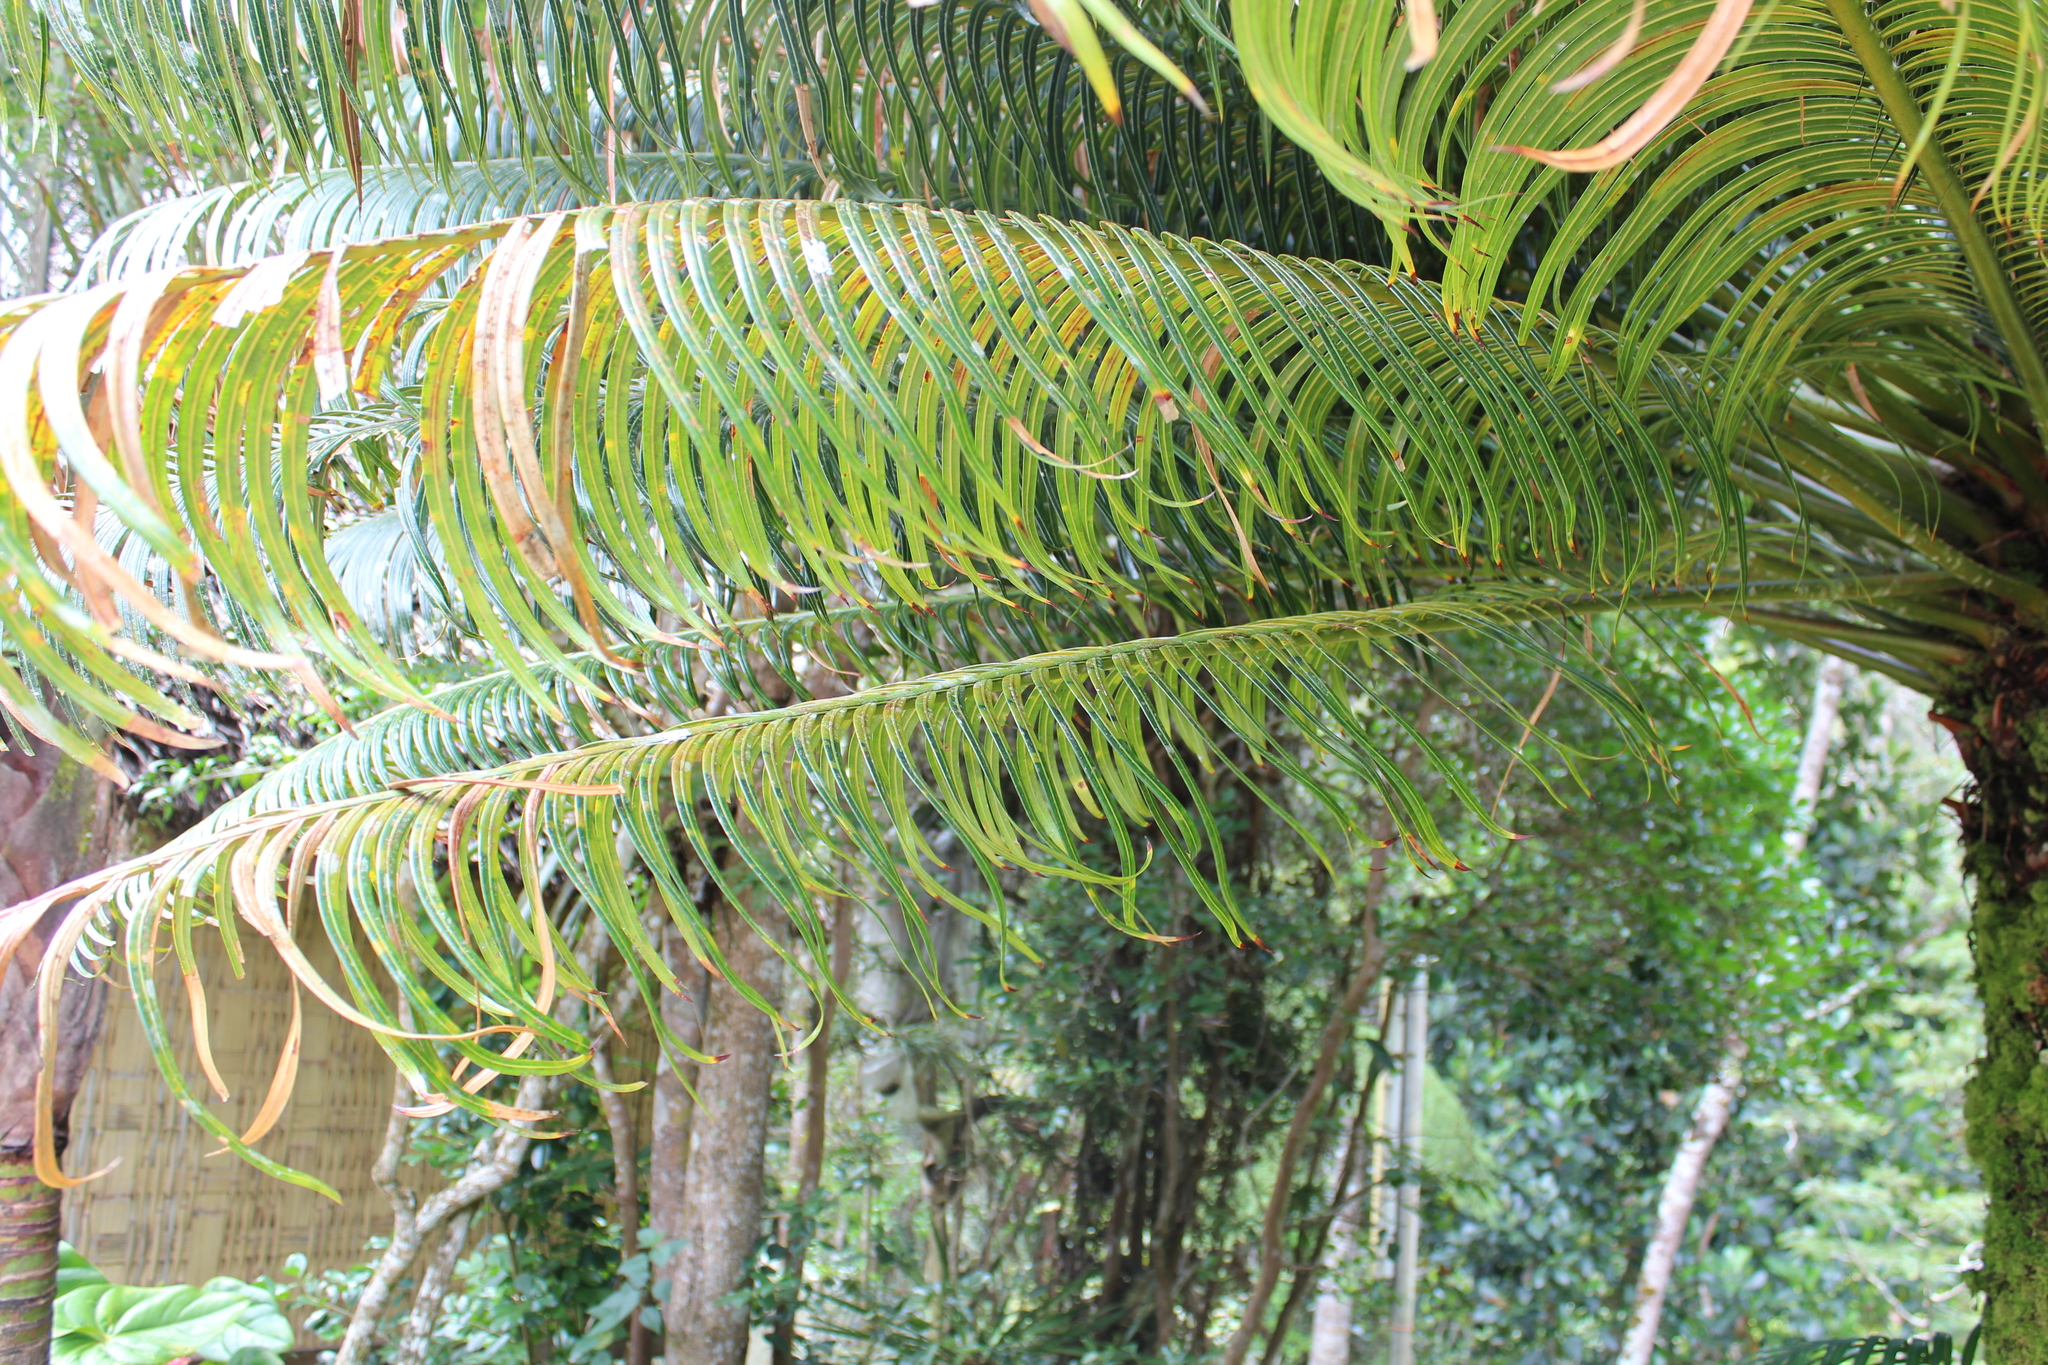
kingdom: Plantae
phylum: Tracheophyta
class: Cycadopsida
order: Cycadales
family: Cycadaceae
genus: Cycas
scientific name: Cycas thouarsii
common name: Madagascar cycad
